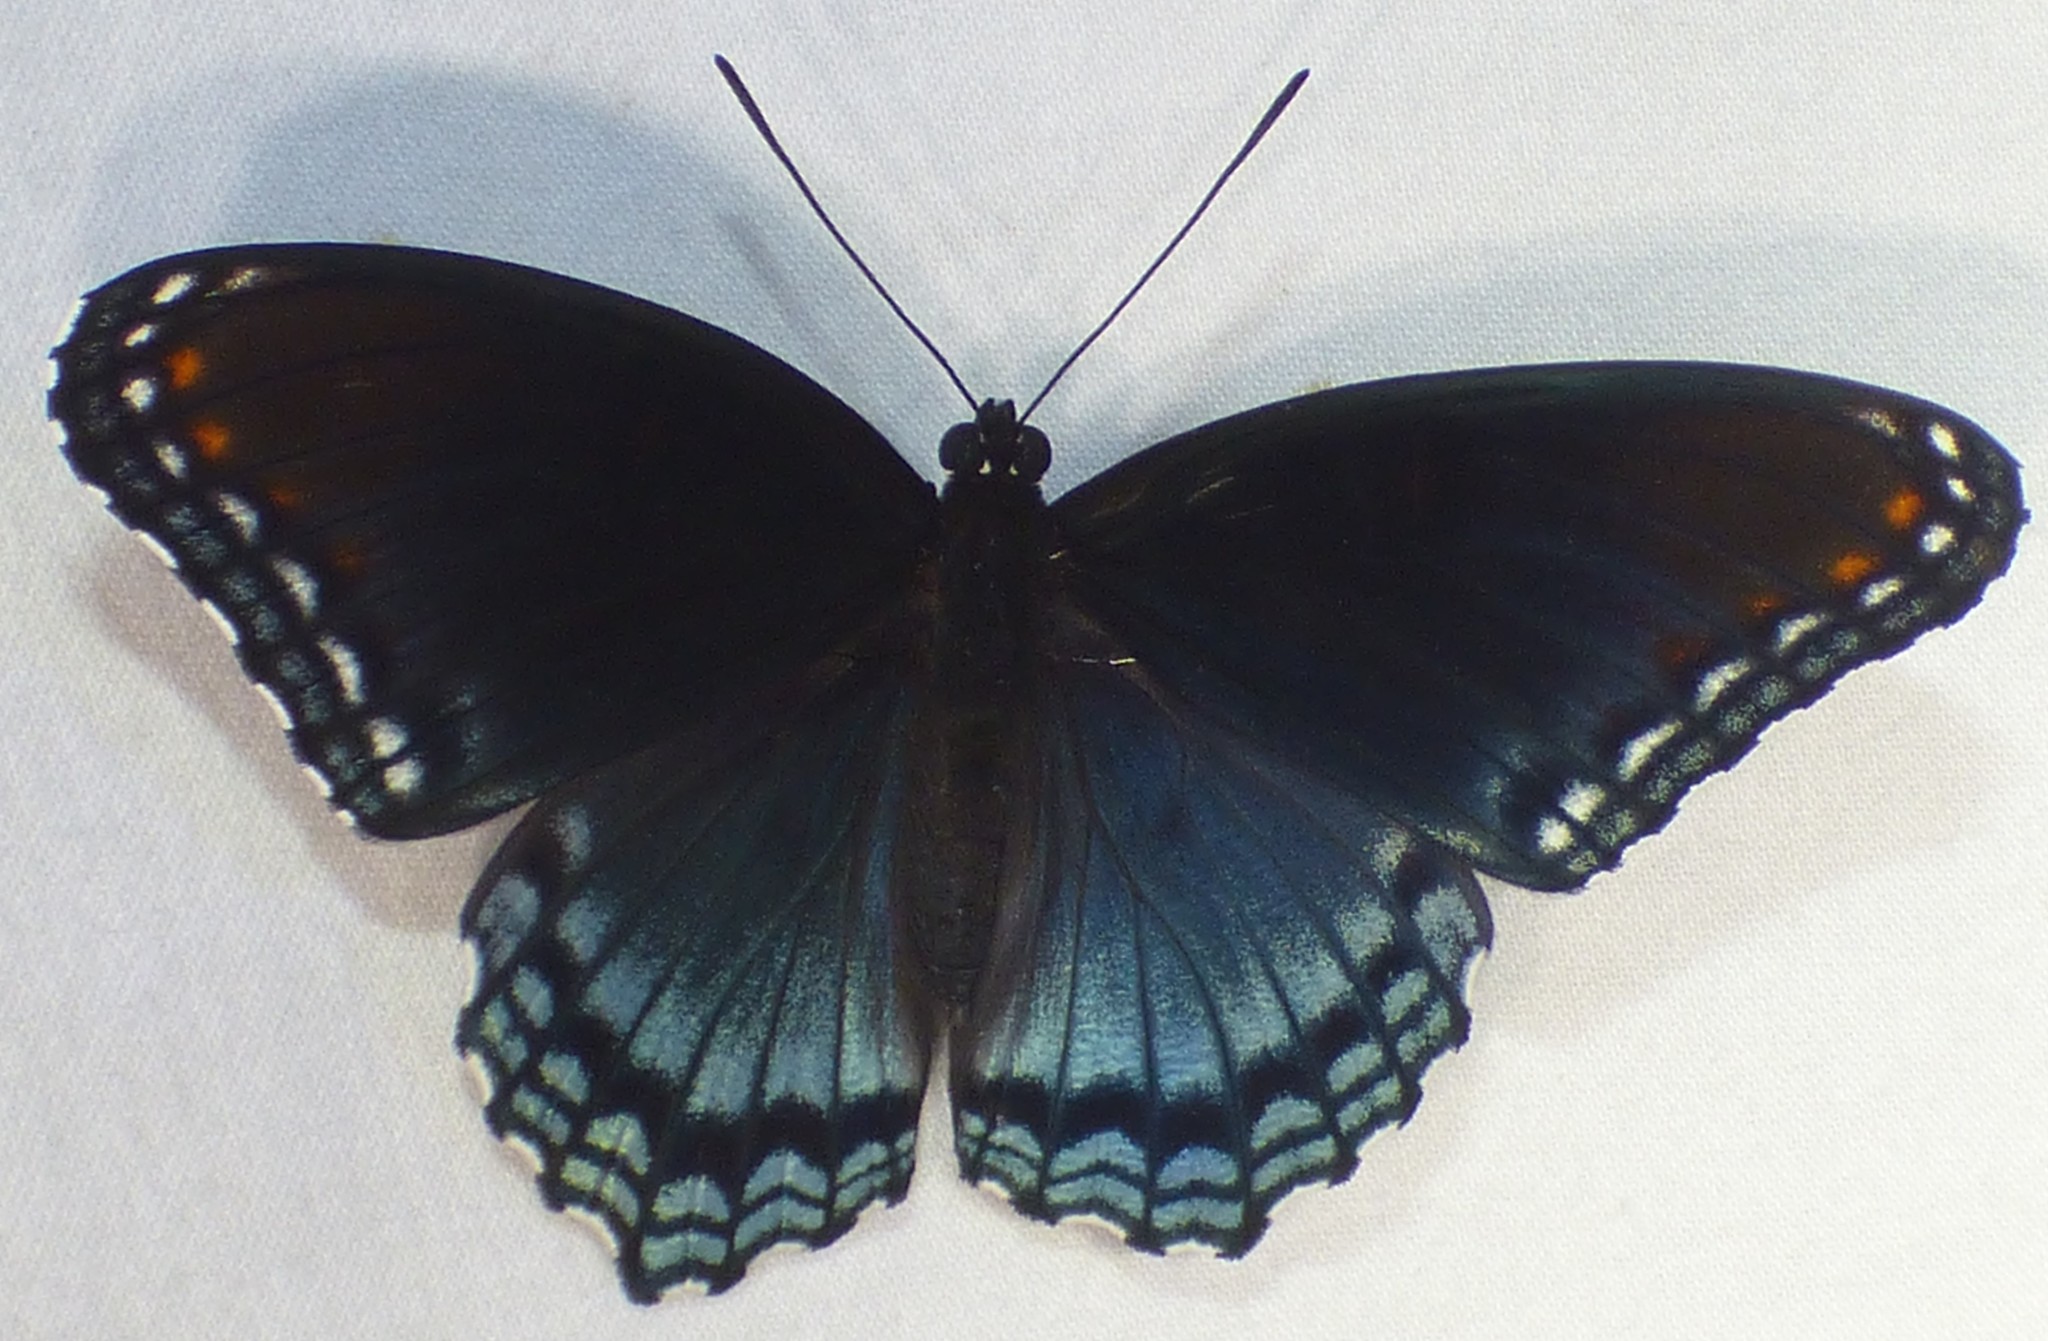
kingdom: Animalia
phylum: Arthropoda
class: Insecta
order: Lepidoptera
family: Nymphalidae
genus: Limenitis
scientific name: Limenitis astyanax
